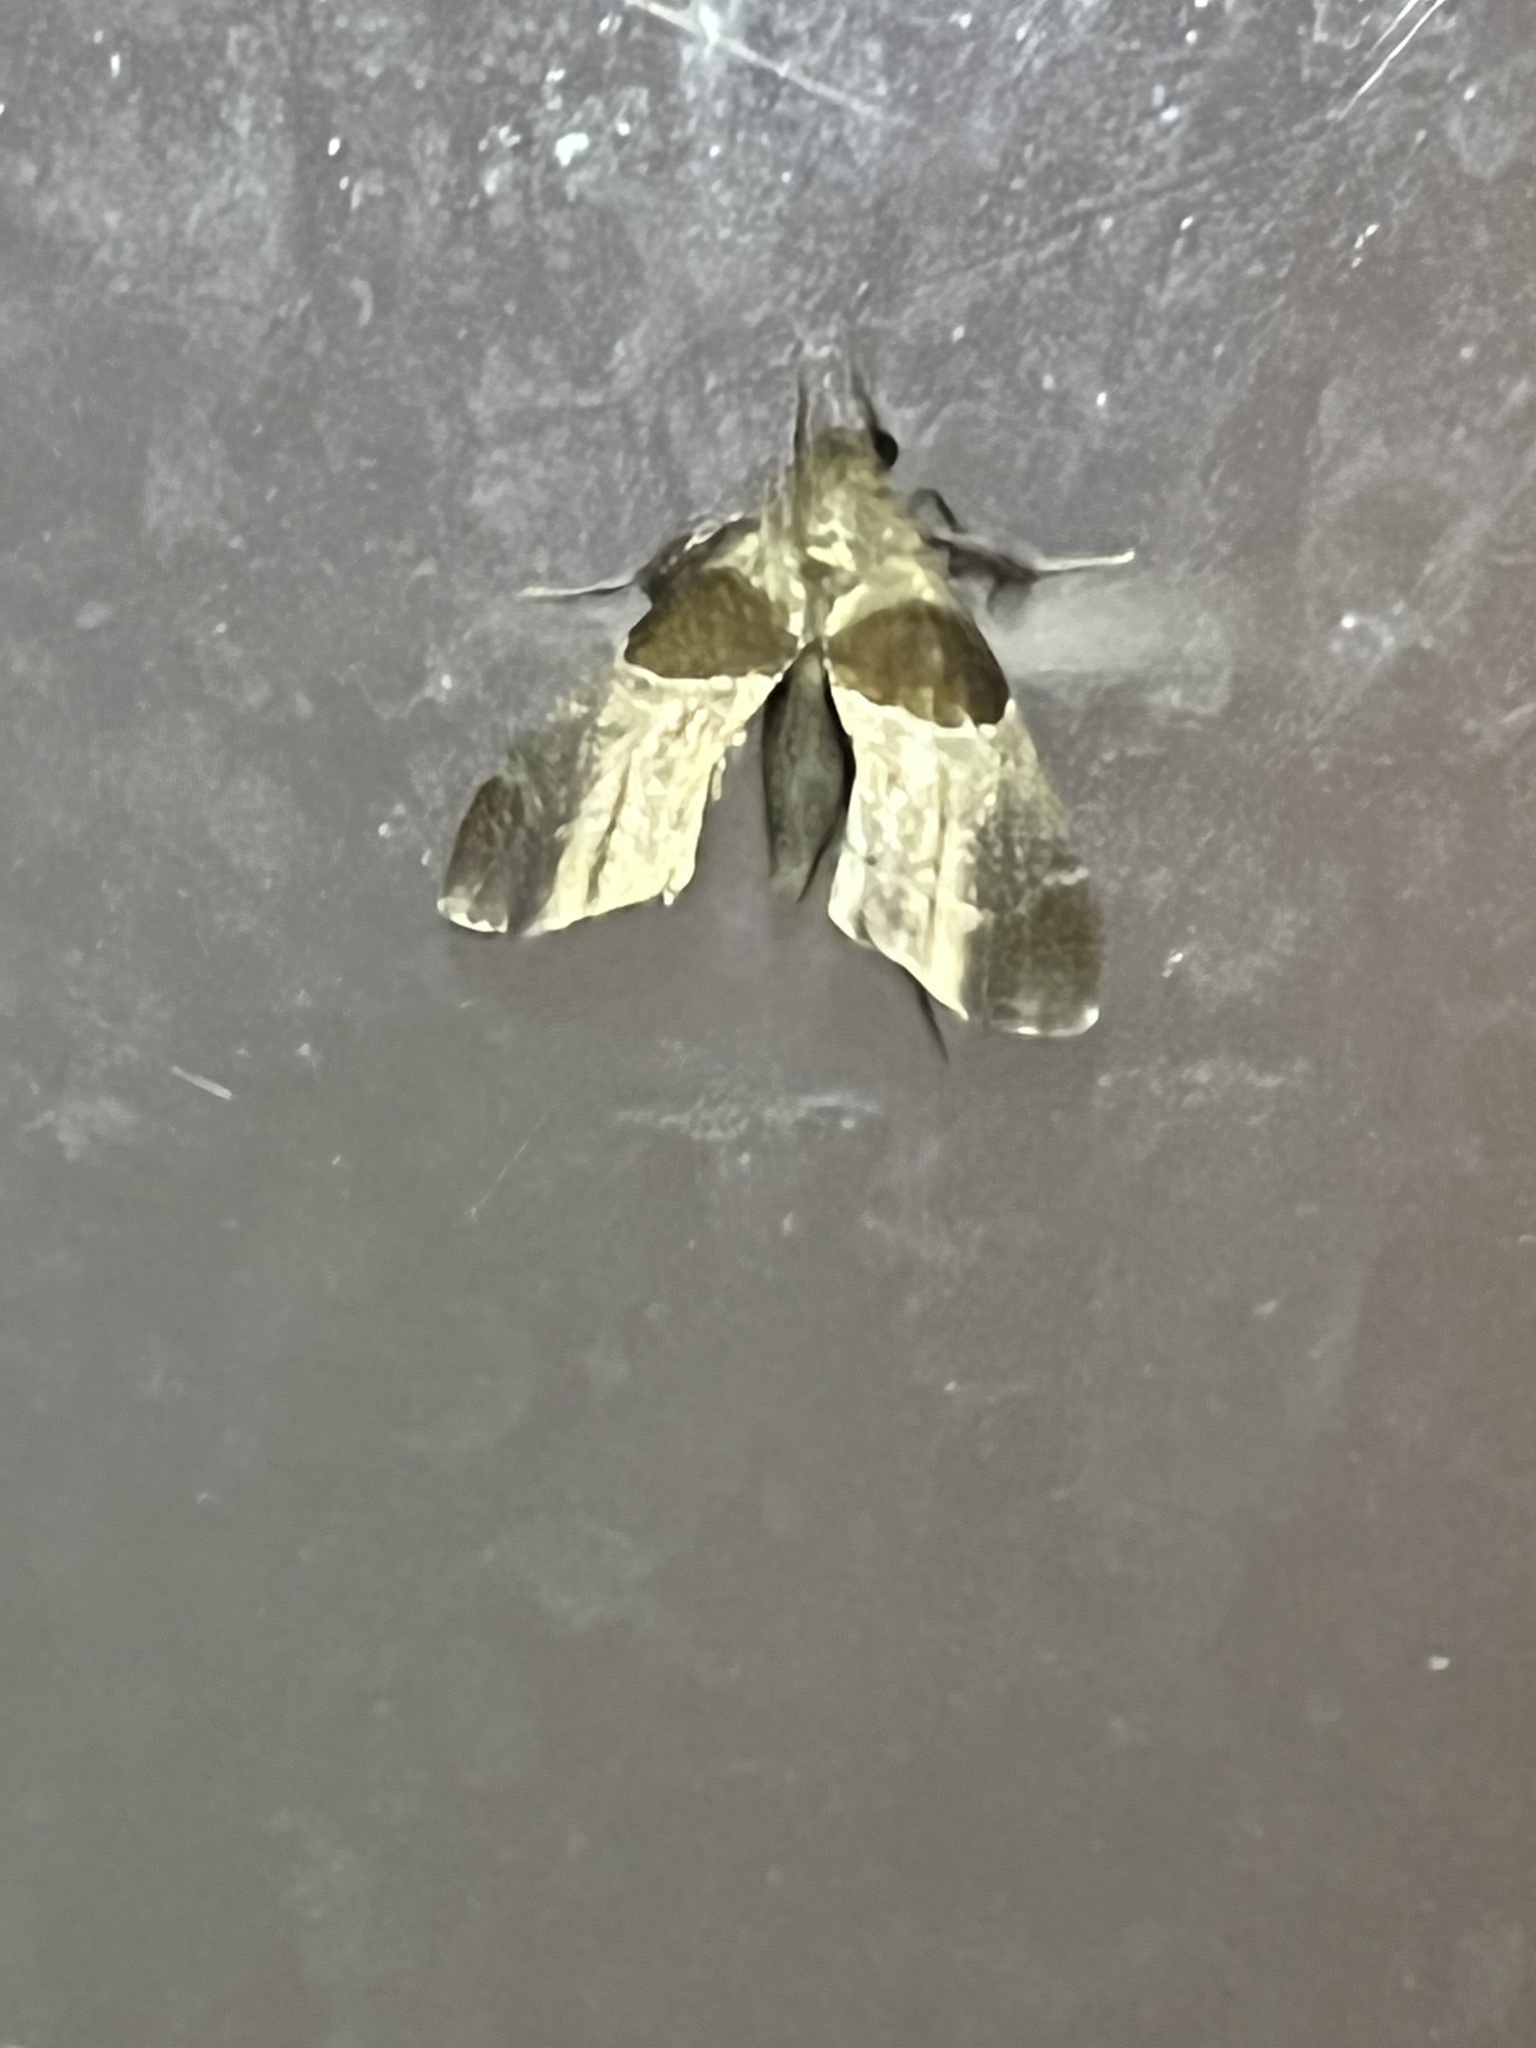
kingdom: Animalia
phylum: Arthropoda
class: Insecta
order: Lepidoptera
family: Pyralidae
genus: Tosale
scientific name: Tosale oviplagalis
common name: Dimorphic tosale moth
